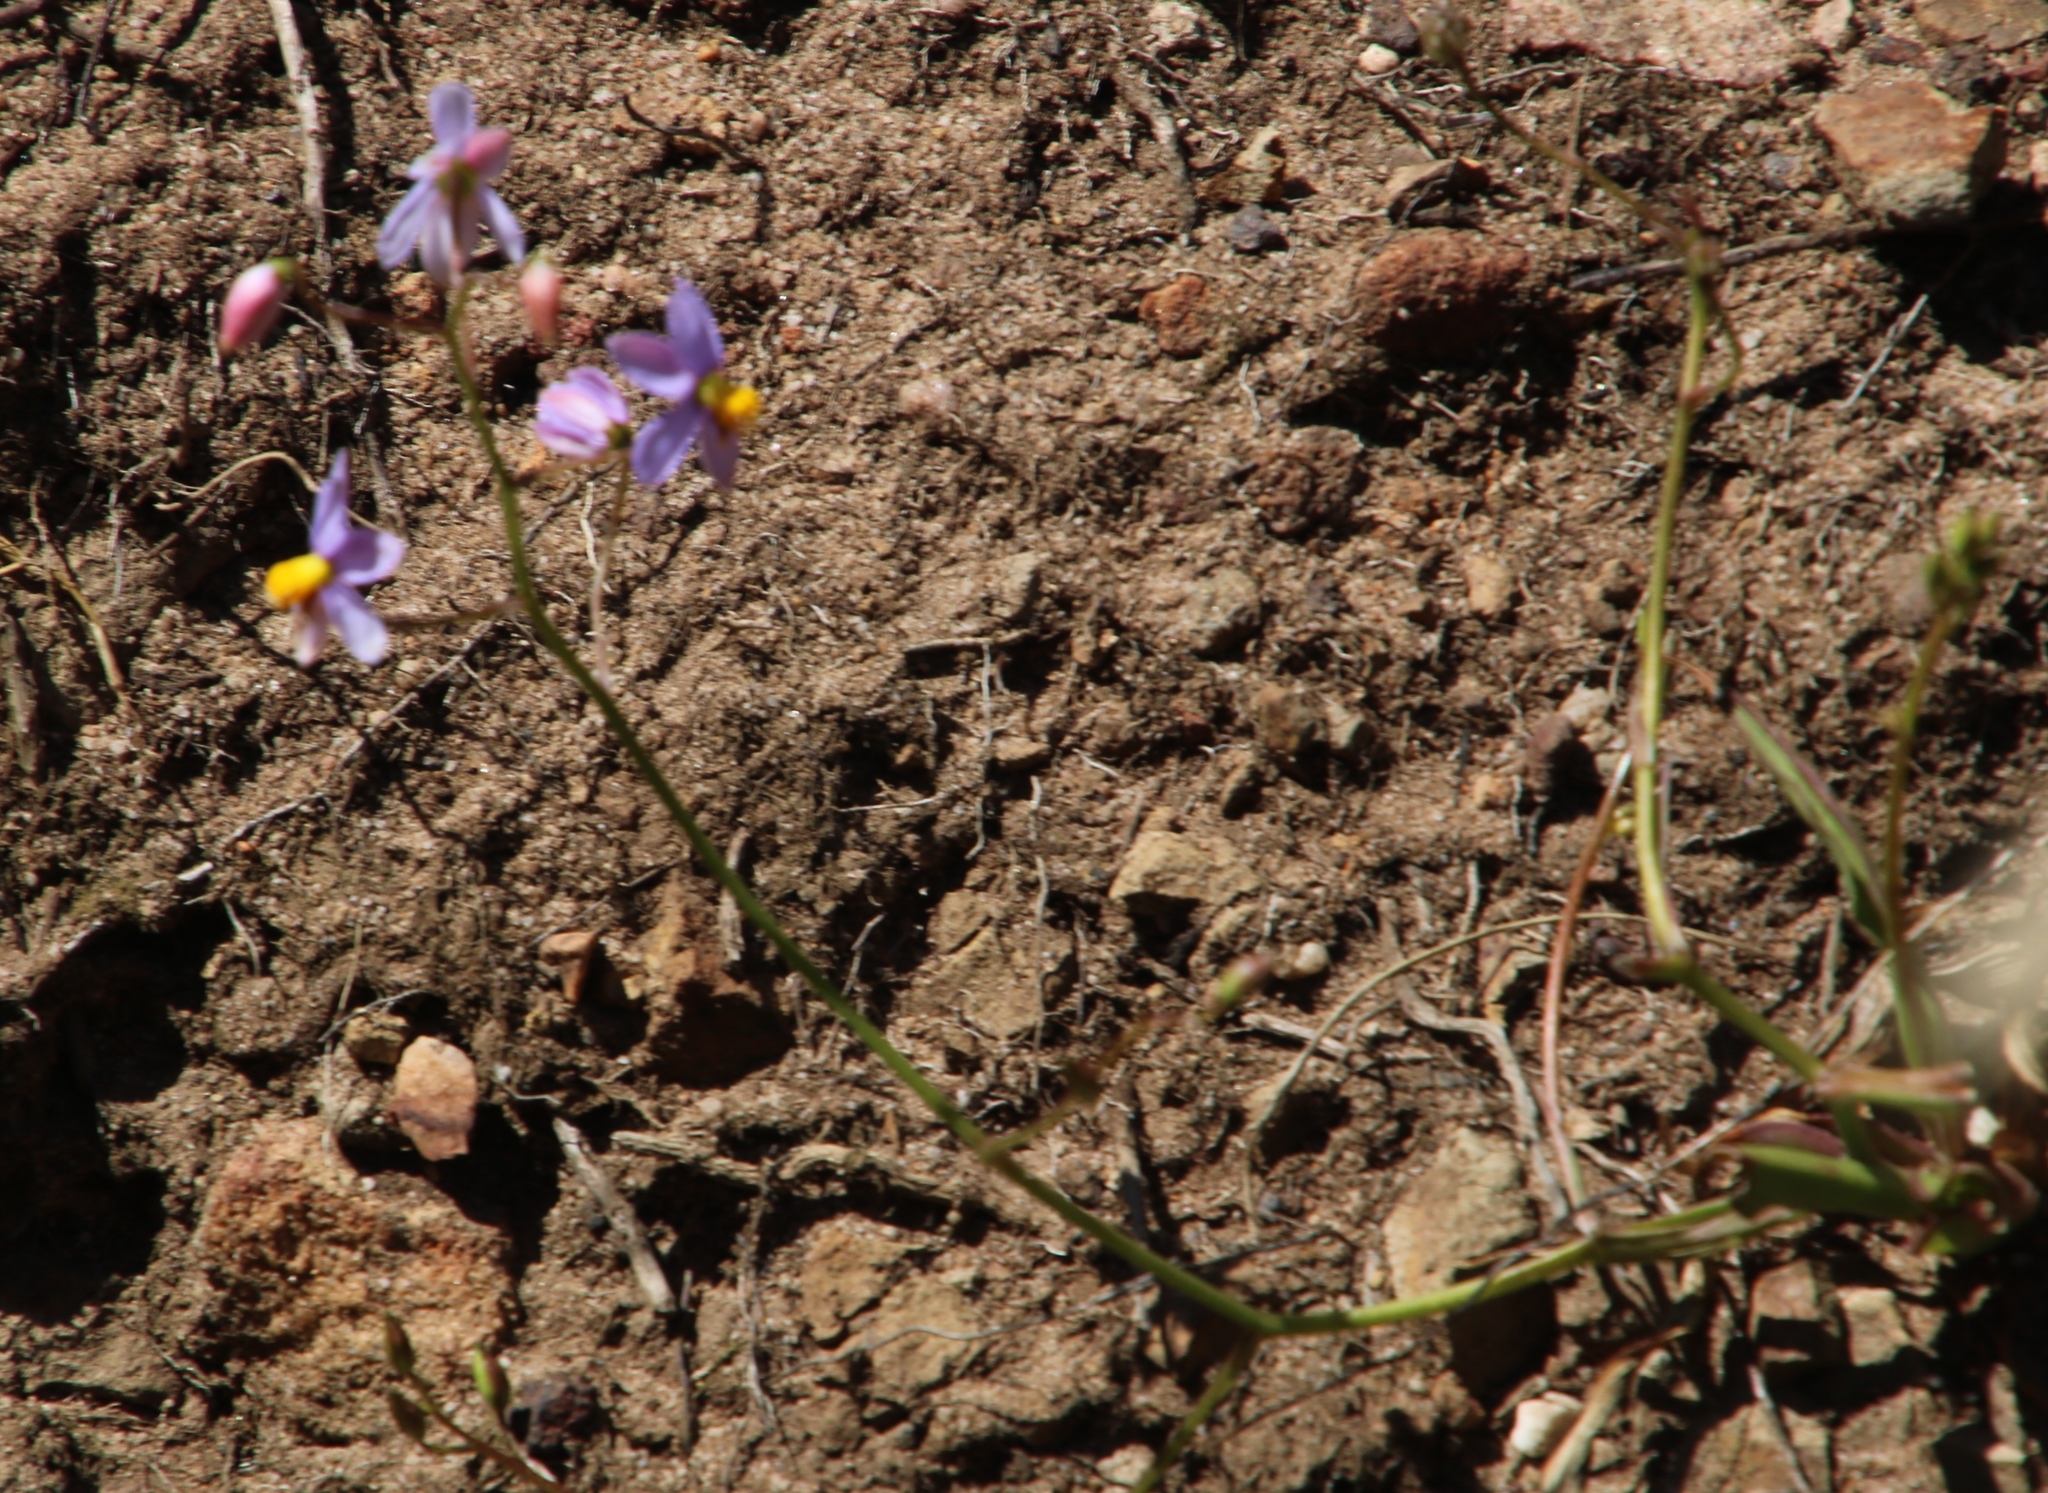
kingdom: Plantae
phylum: Tracheophyta
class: Liliopsida
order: Asparagales
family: Tecophilaeaceae
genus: Cyanella
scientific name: Cyanella hyacinthoides
